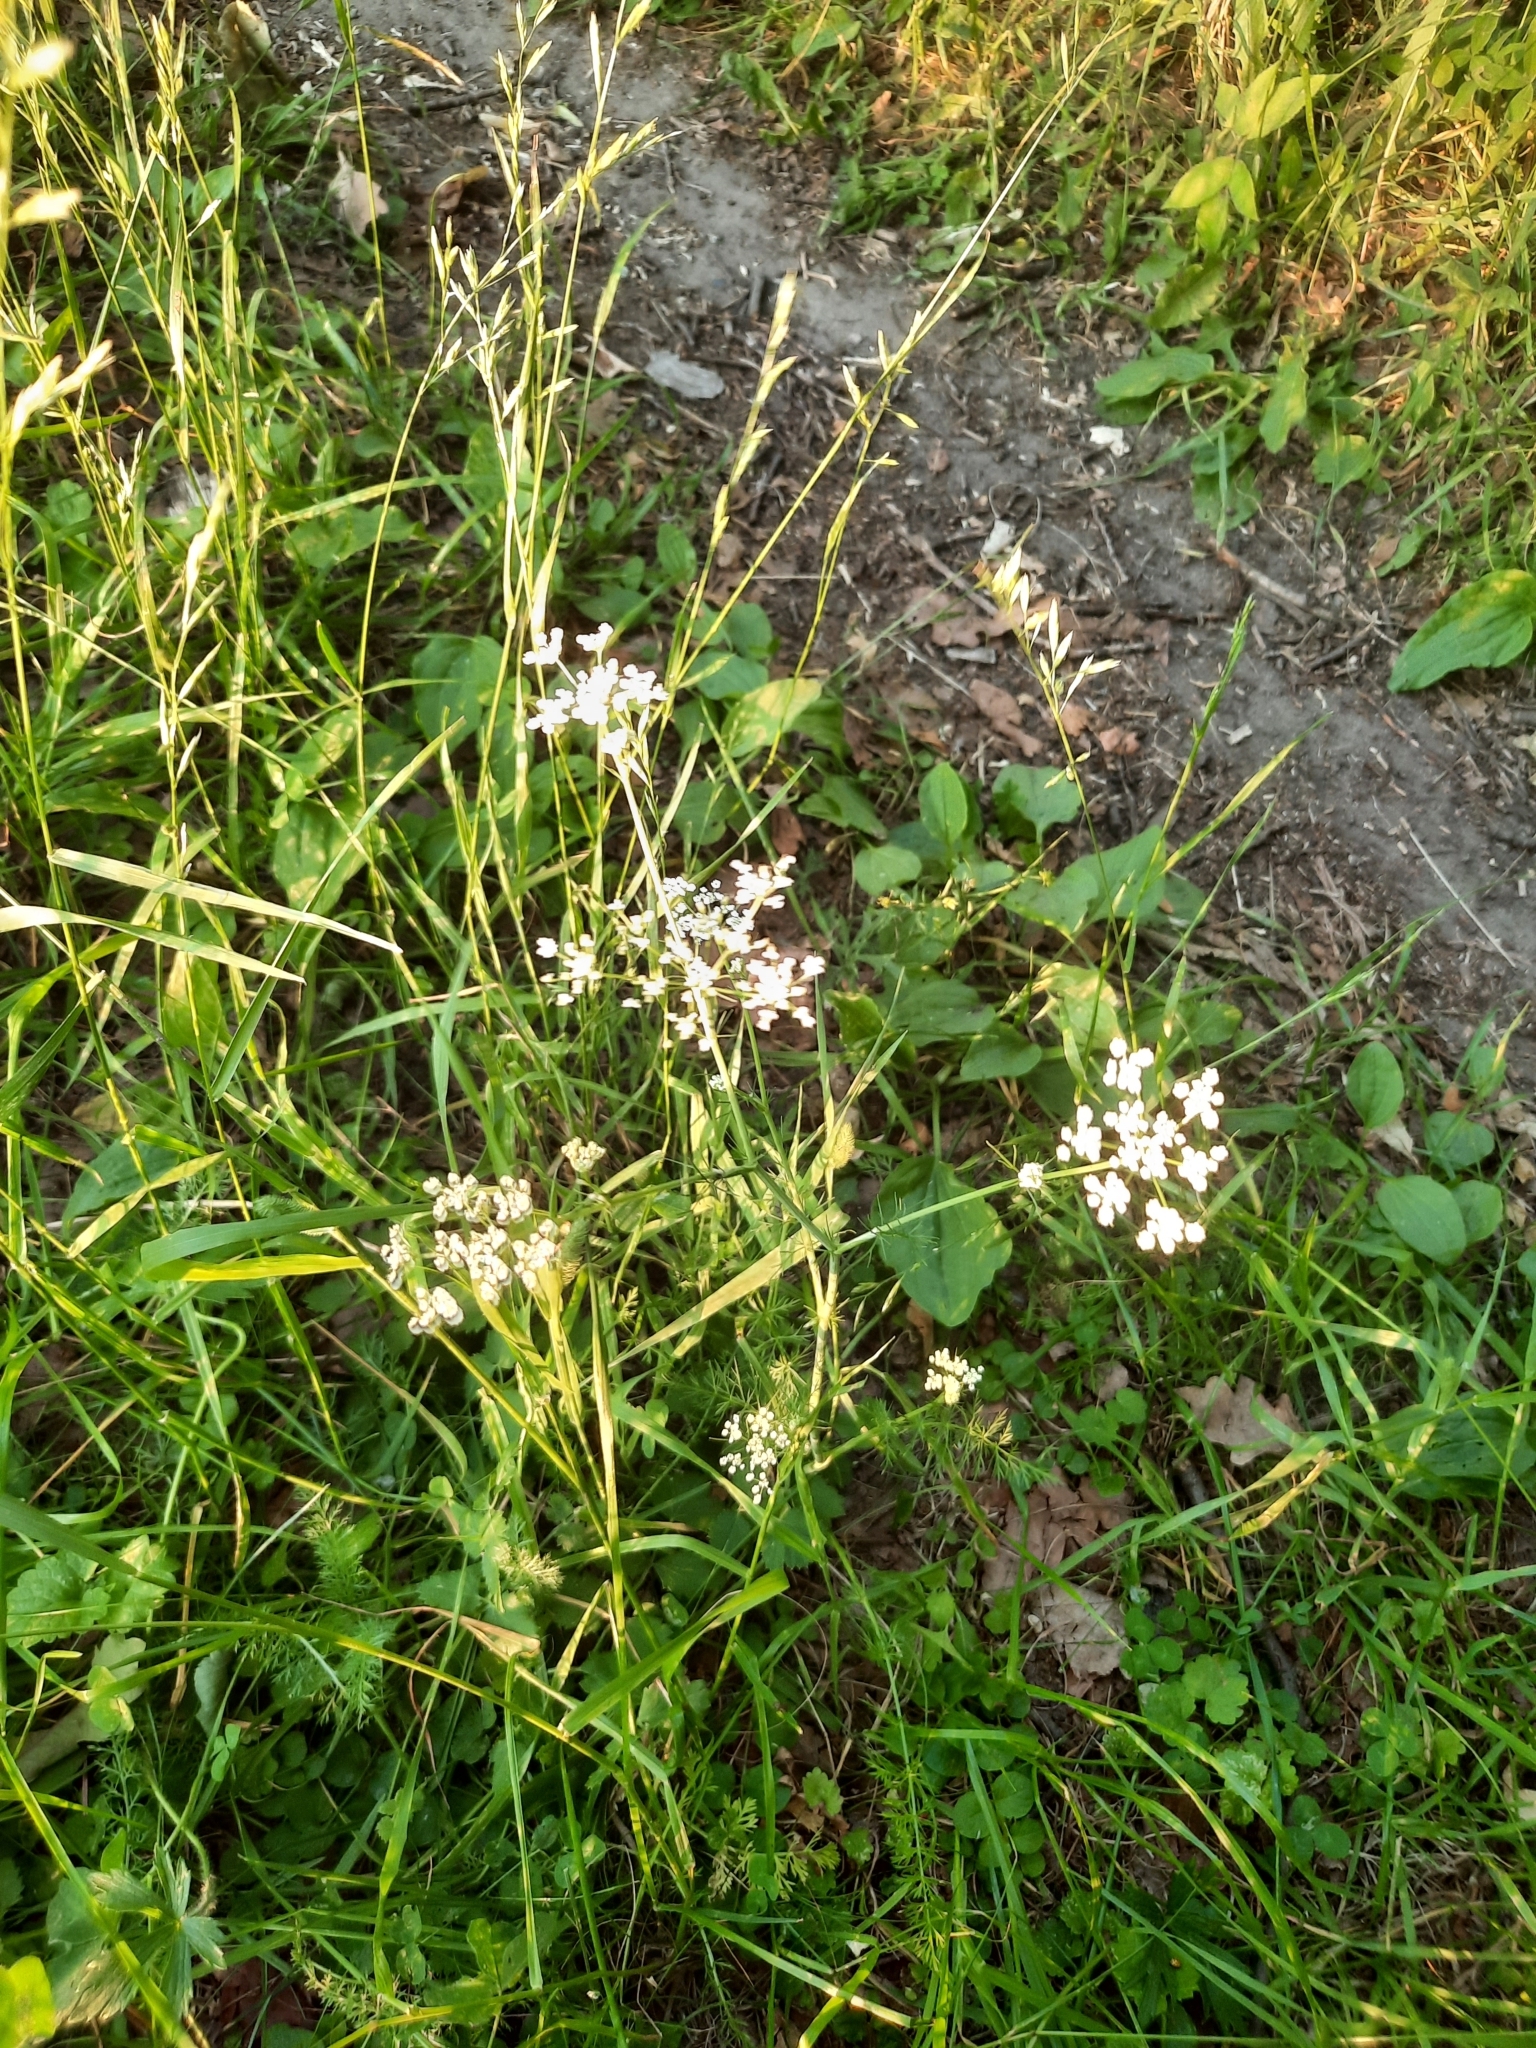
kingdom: Plantae
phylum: Tracheophyta
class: Magnoliopsida
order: Apiales
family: Apiaceae
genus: Carum
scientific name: Carum carvi
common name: Caraway
